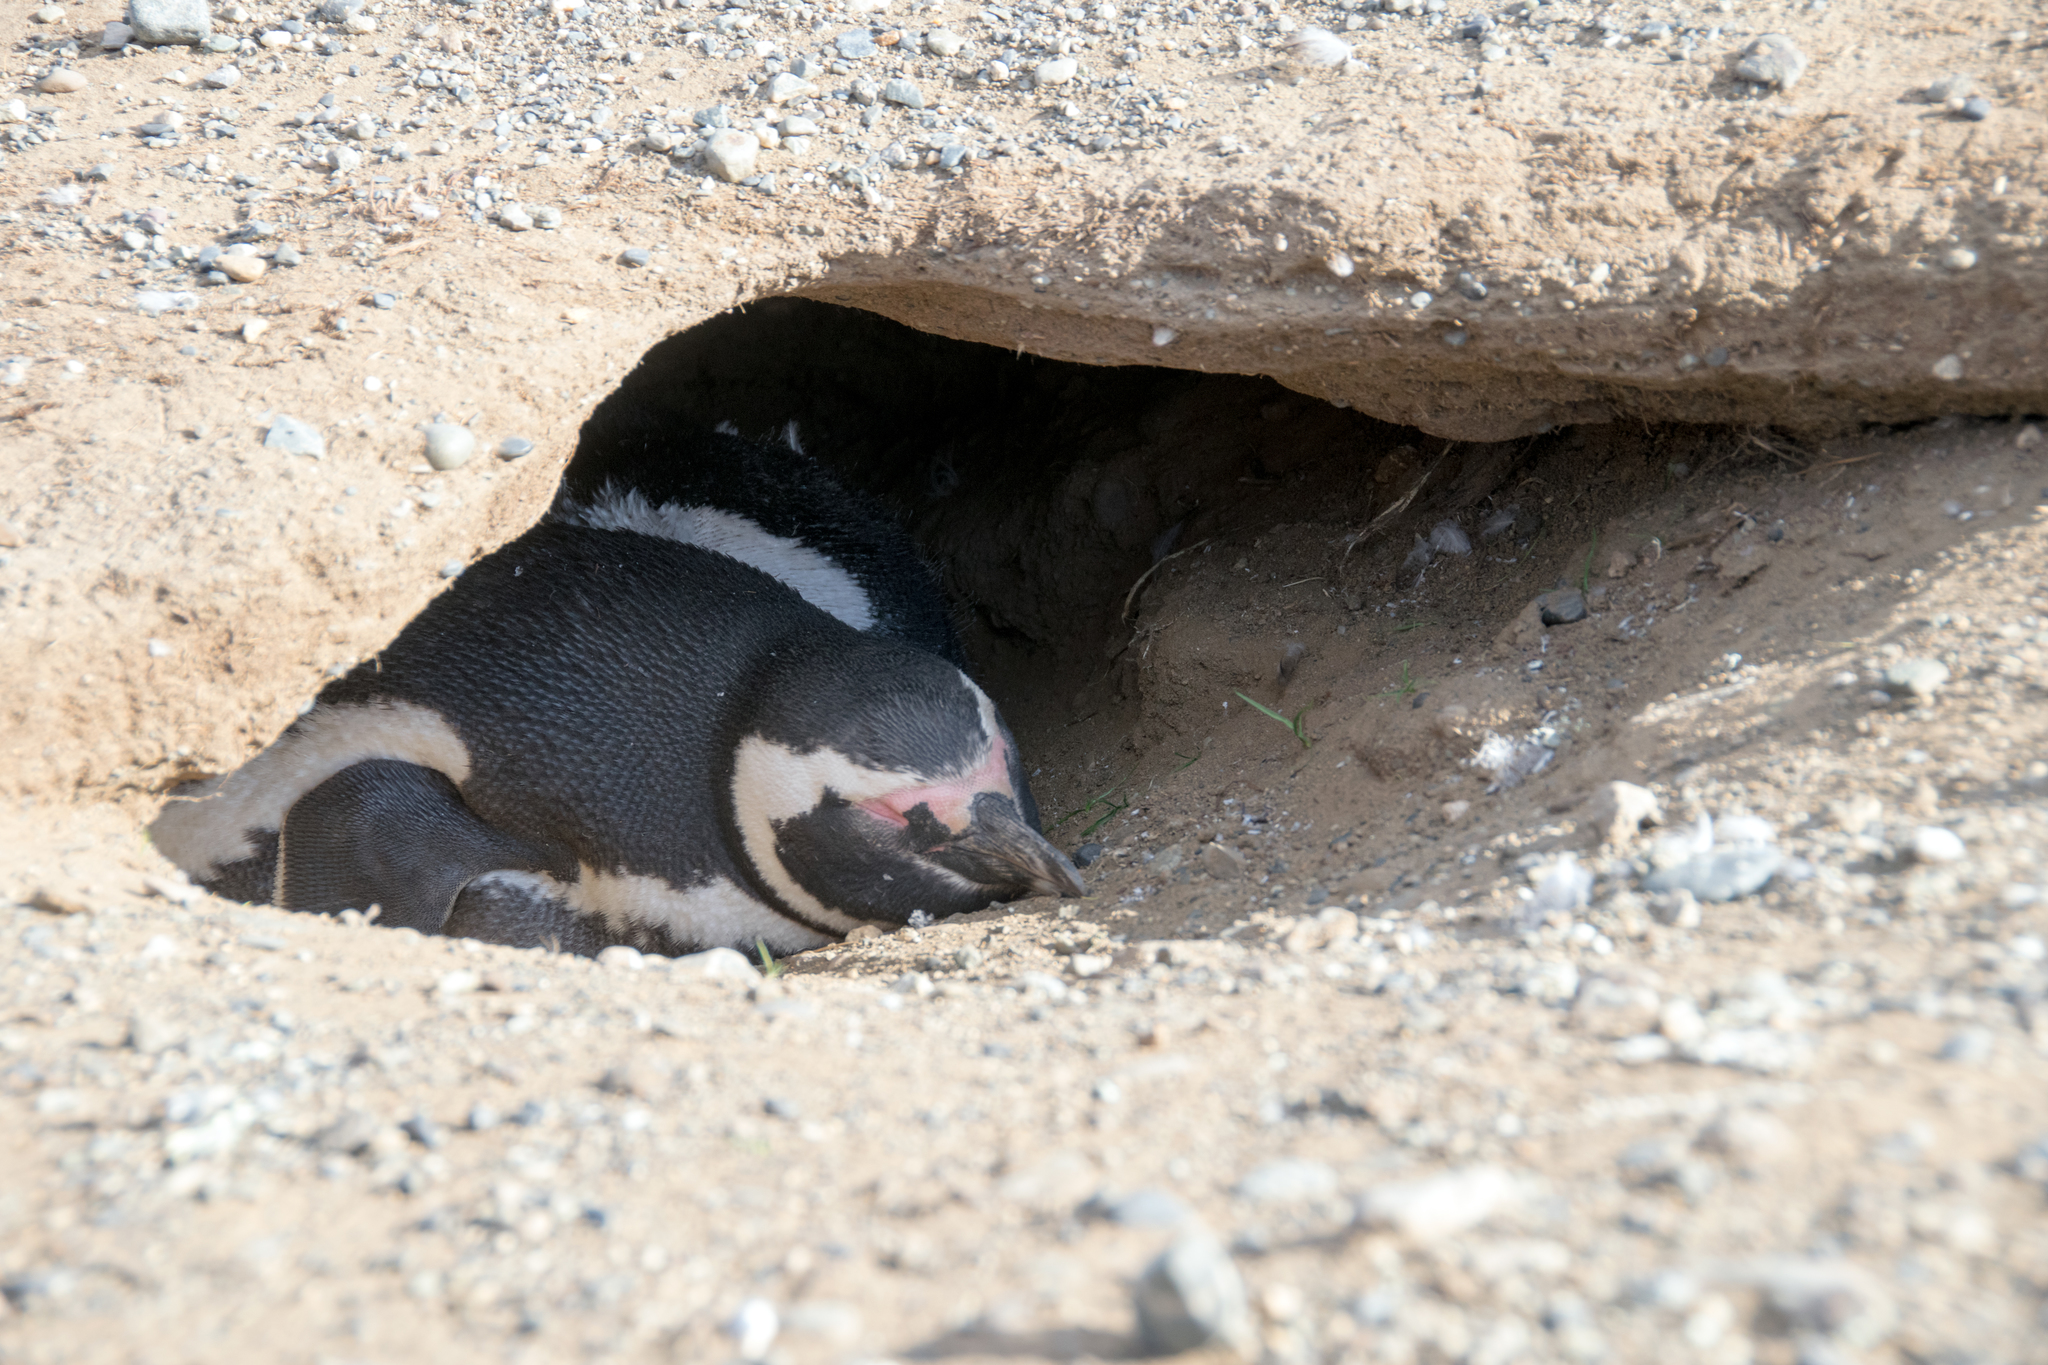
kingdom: Animalia
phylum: Chordata
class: Aves
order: Sphenisciformes
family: Spheniscidae
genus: Spheniscus
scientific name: Spheniscus magellanicus
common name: Magellanic penguin
